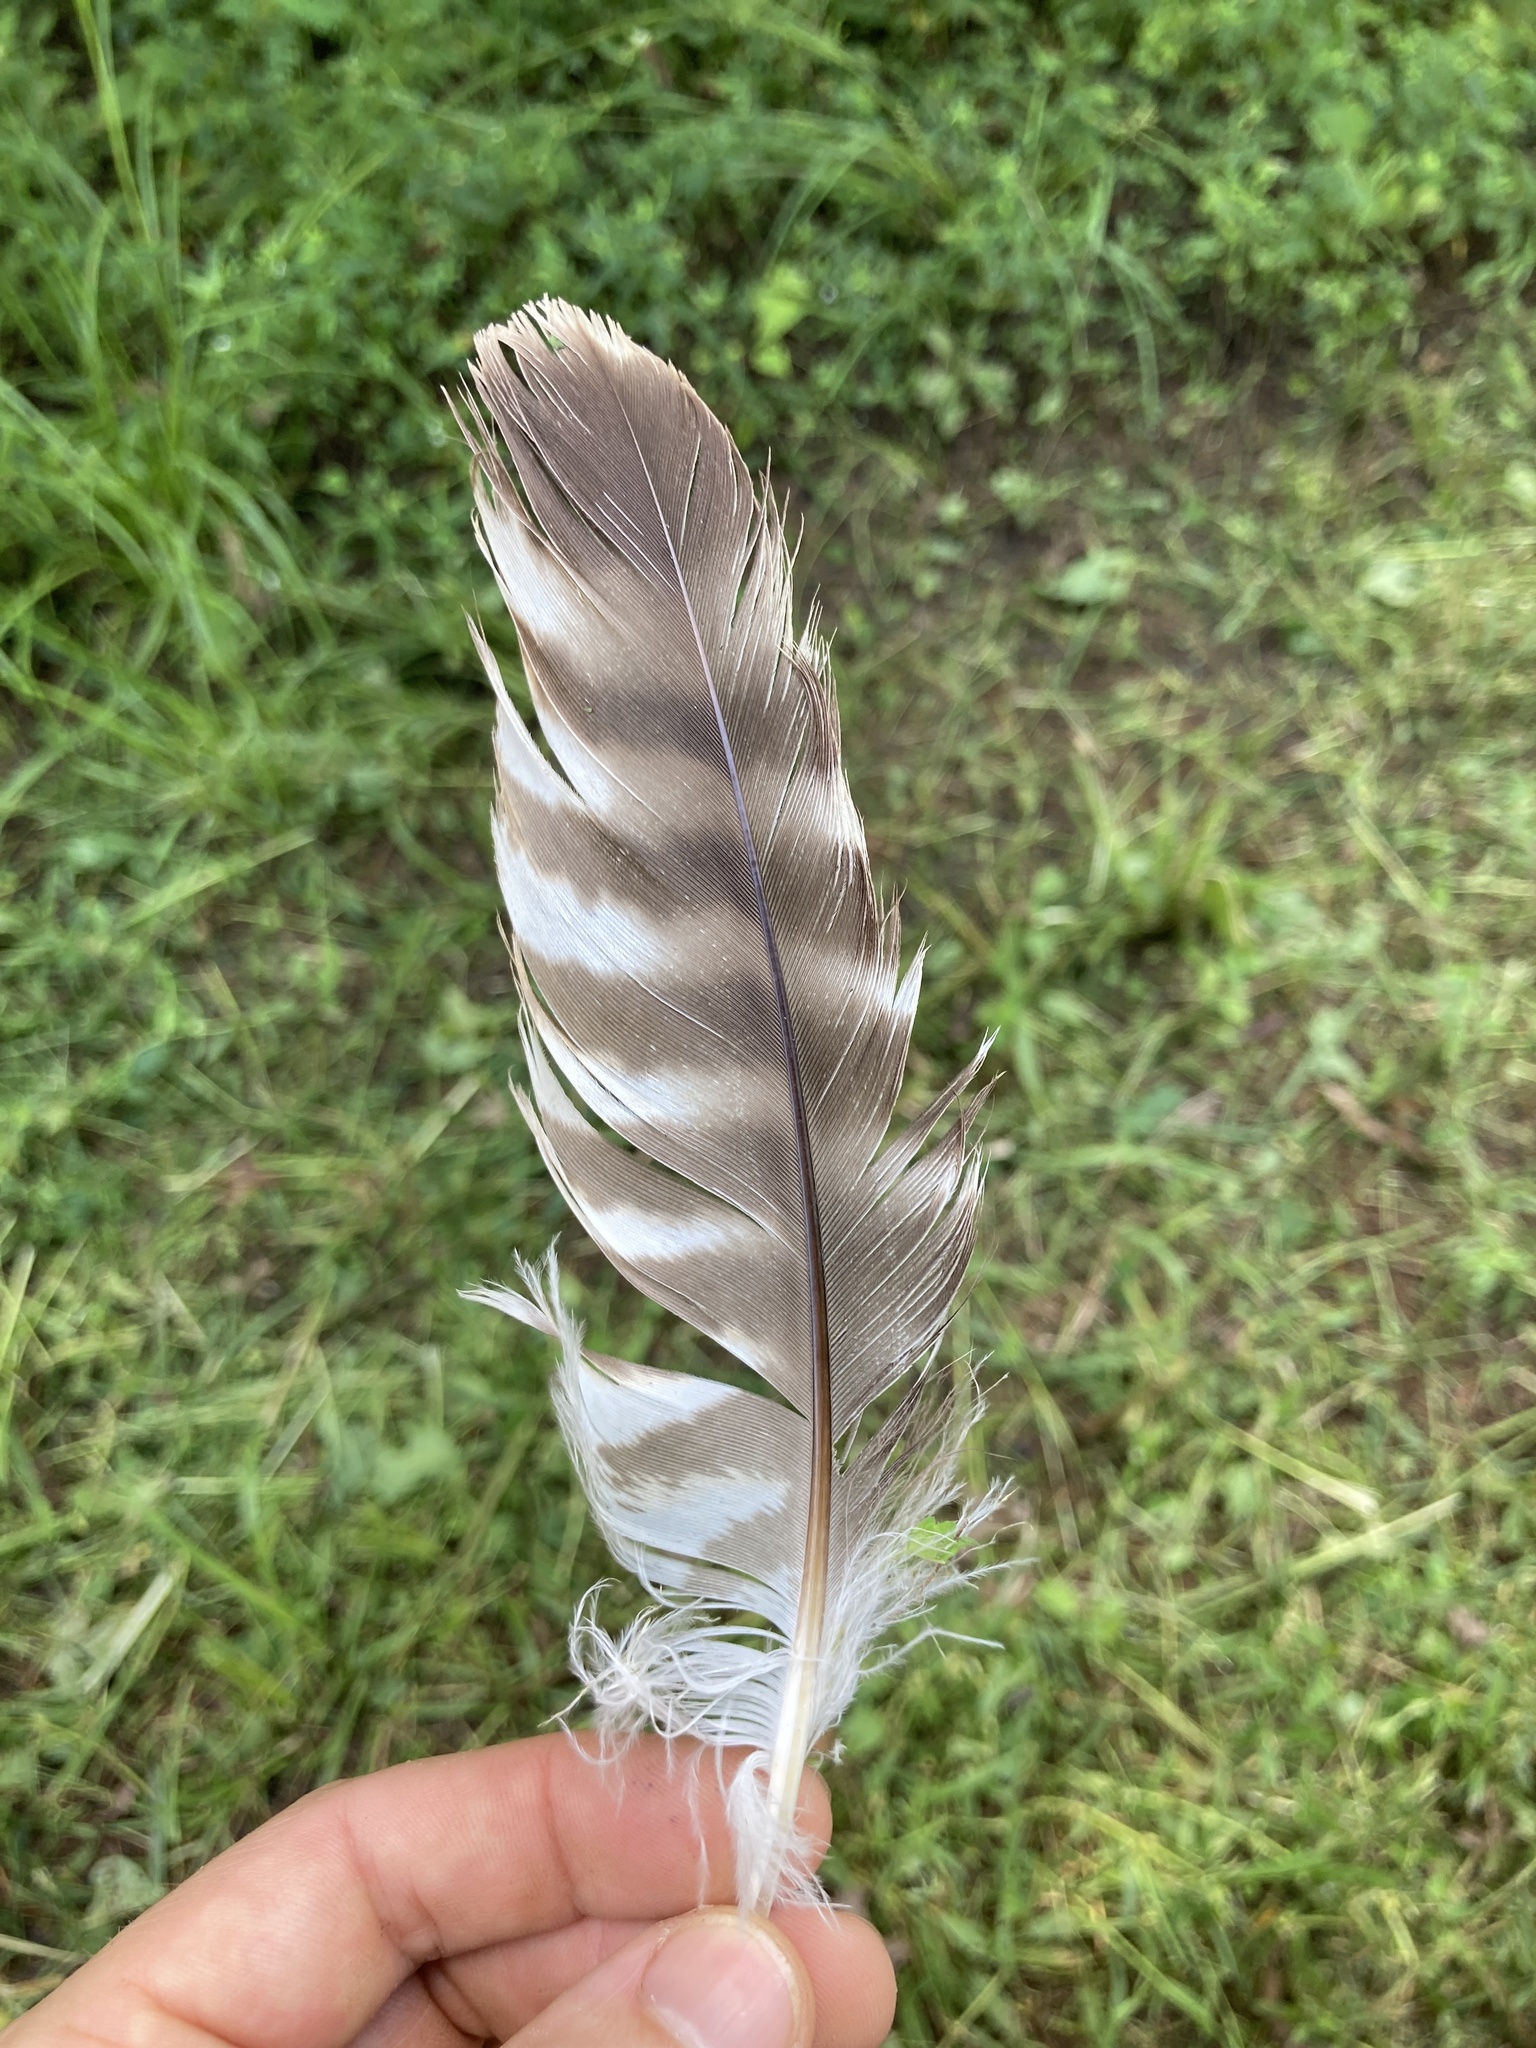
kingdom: Animalia
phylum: Chordata
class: Aves
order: Accipitriformes
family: Accipitridae
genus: Buteo
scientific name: Buteo lineatus
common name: Red-shouldered hawk
